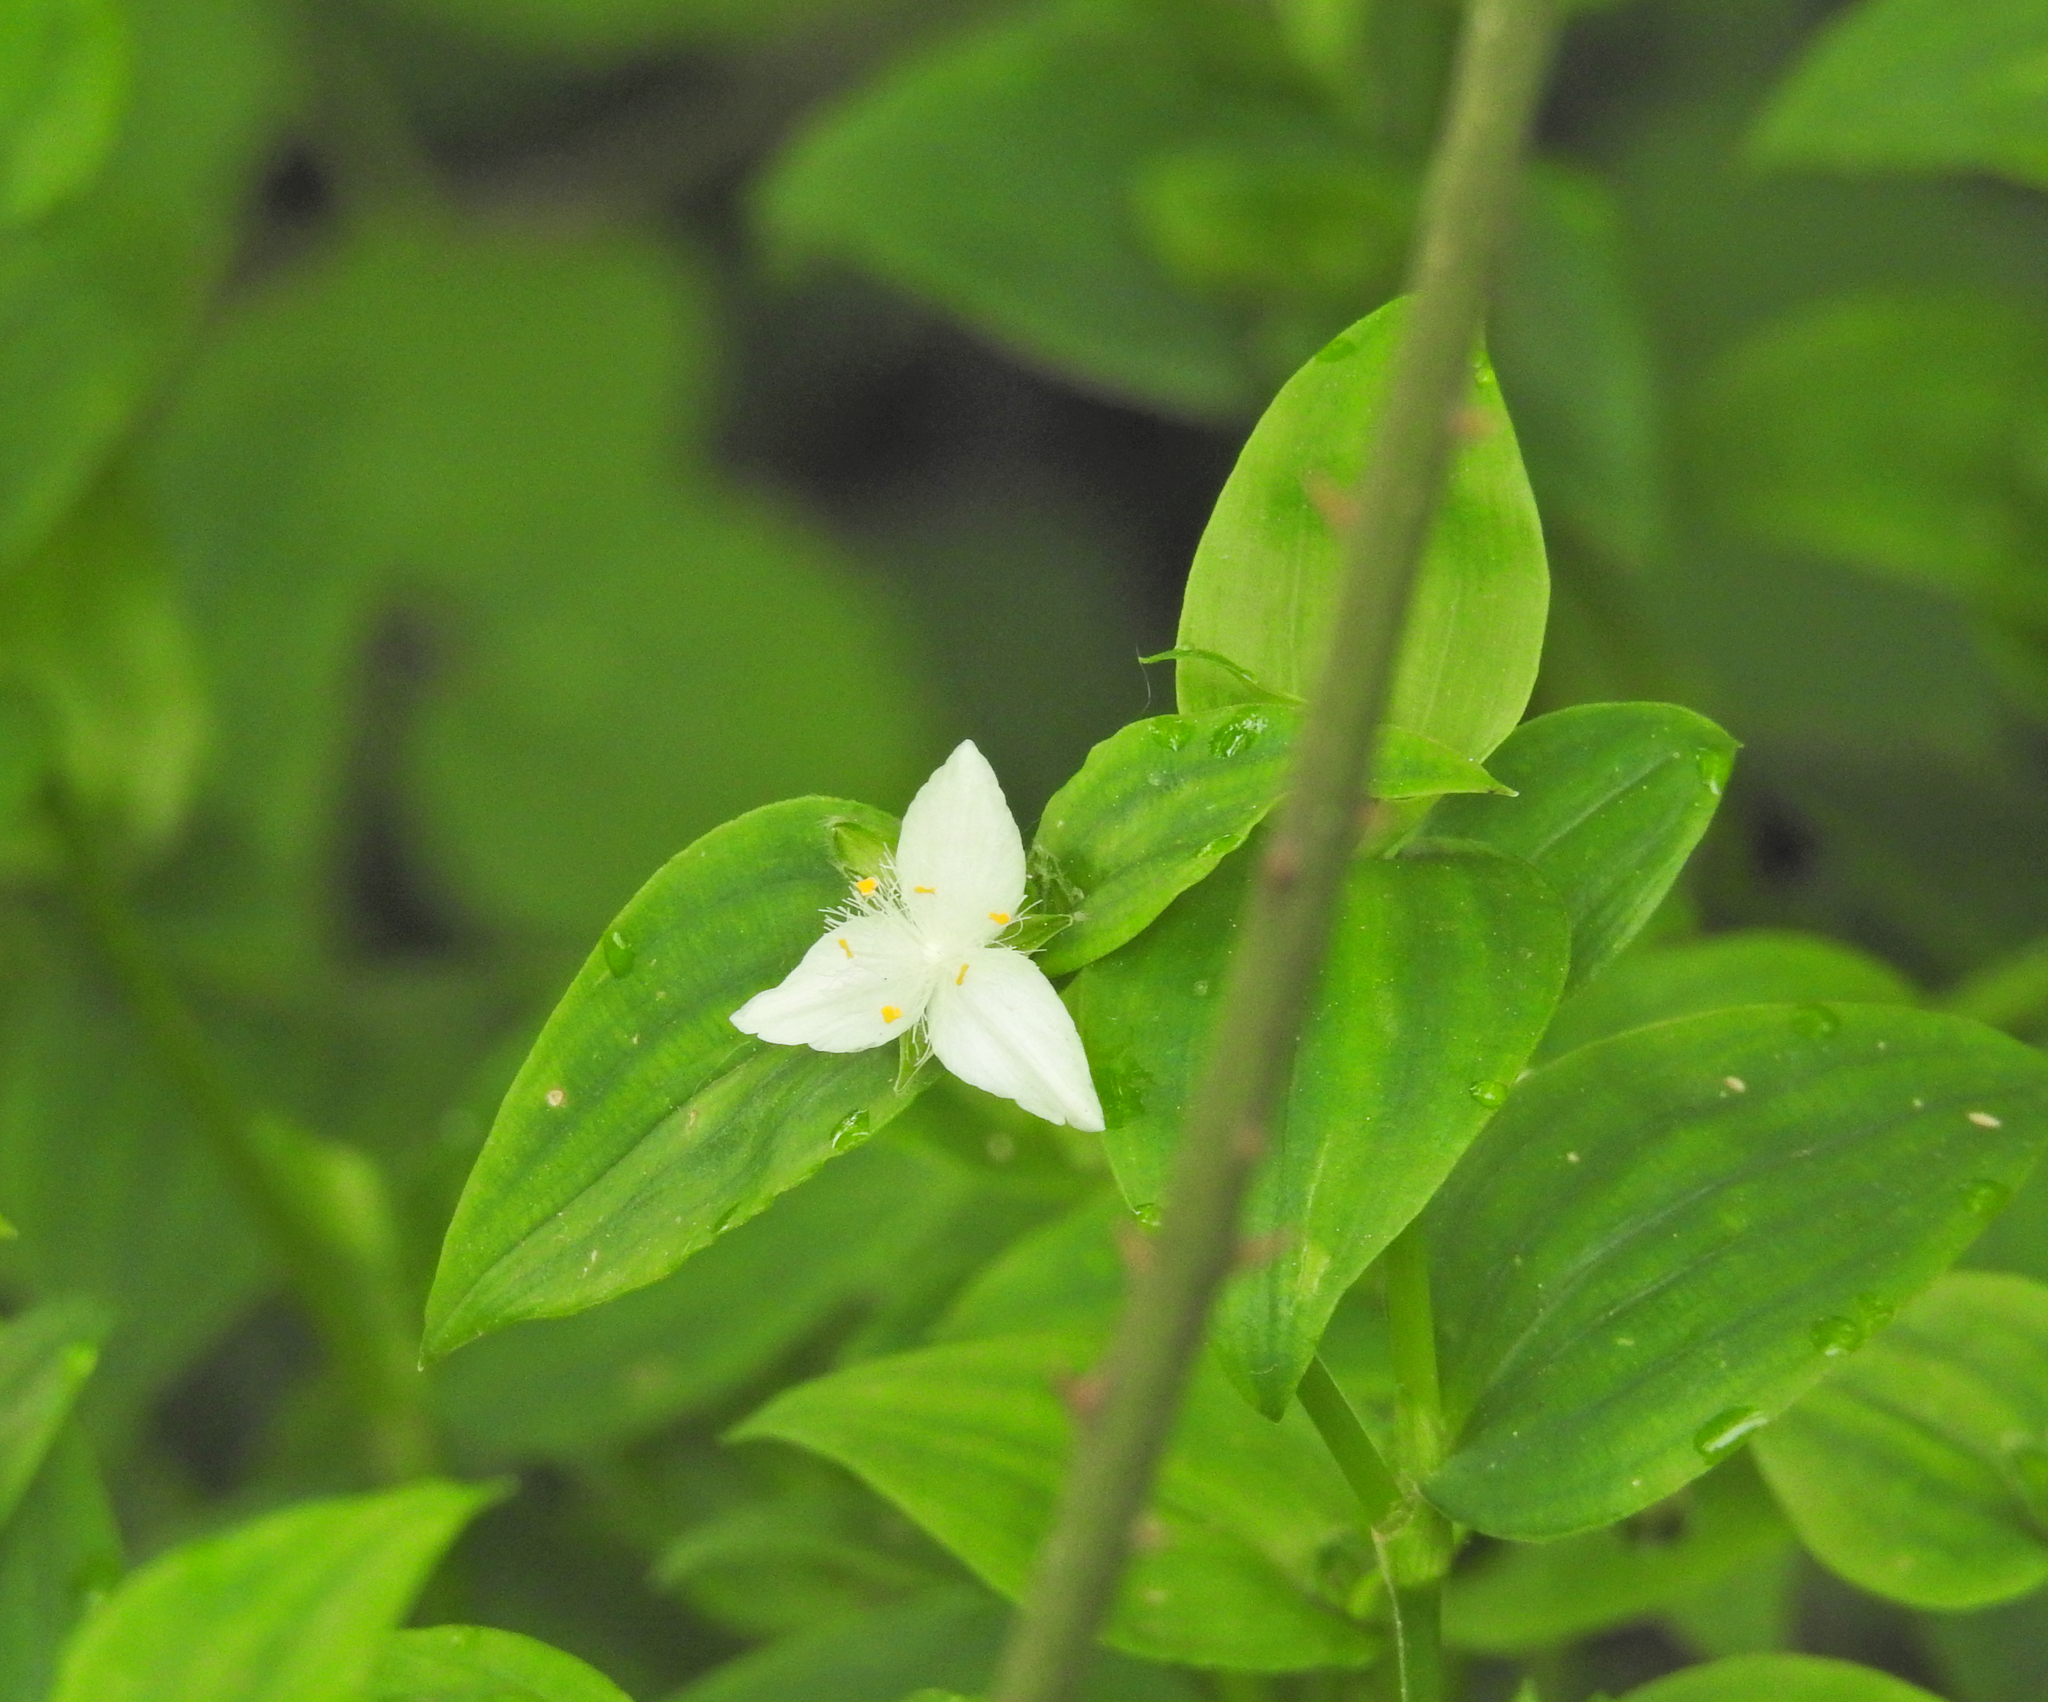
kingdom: Plantae
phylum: Tracheophyta
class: Liliopsida
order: Commelinales
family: Commelinaceae
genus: Tradescantia
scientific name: Tradescantia fluminensis
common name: Wandering-jew
